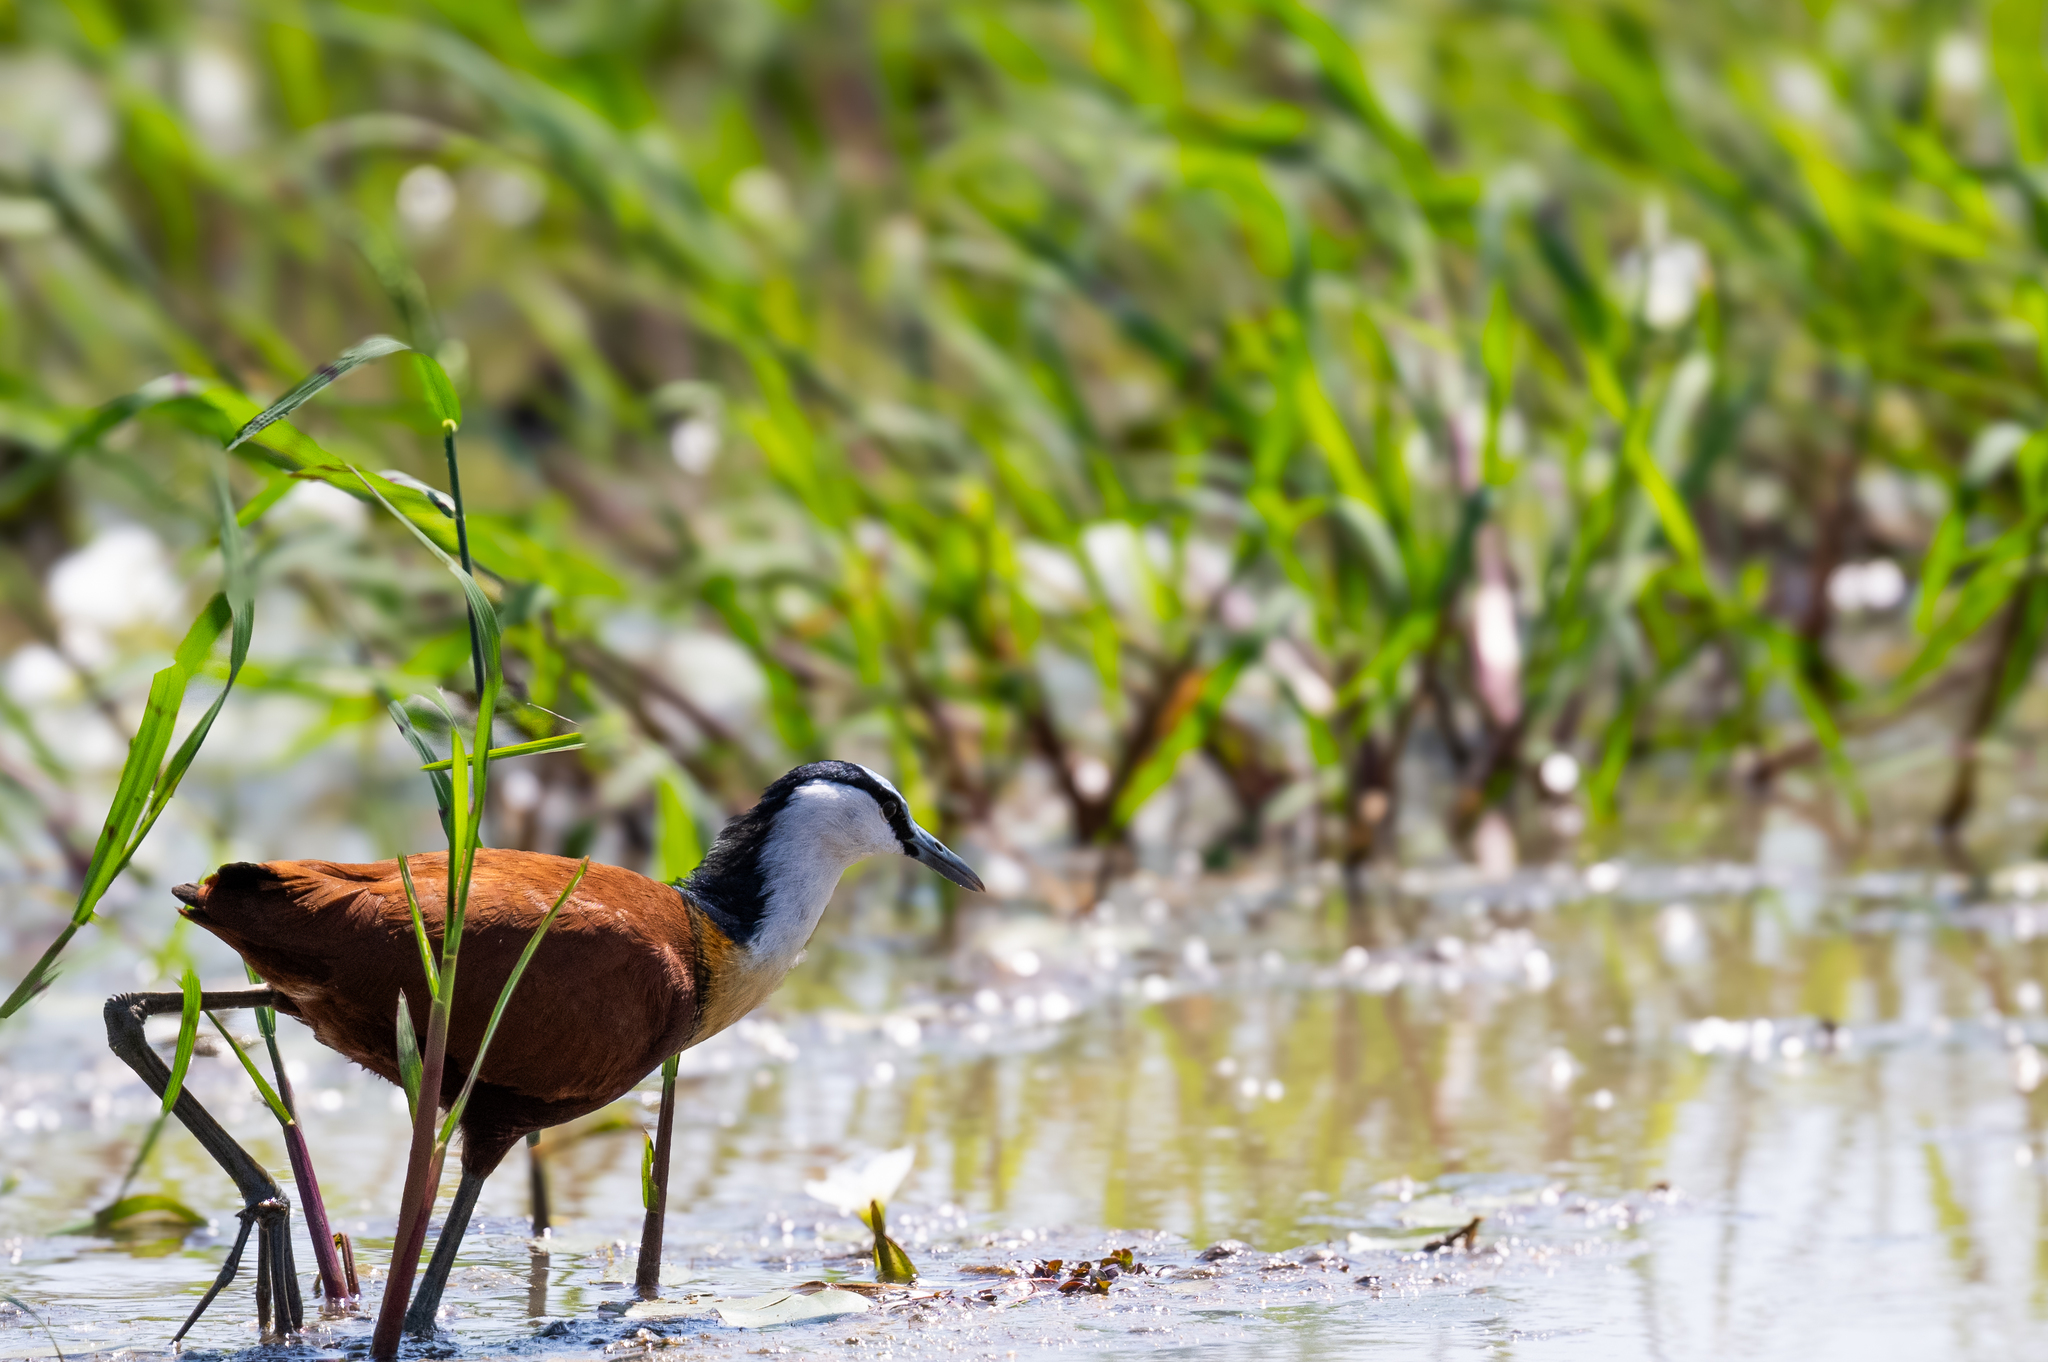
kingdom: Animalia
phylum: Chordata
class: Aves
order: Charadriiformes
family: Jacanidae
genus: Actophilornis
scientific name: Actophilornis africanus
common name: African jacana
